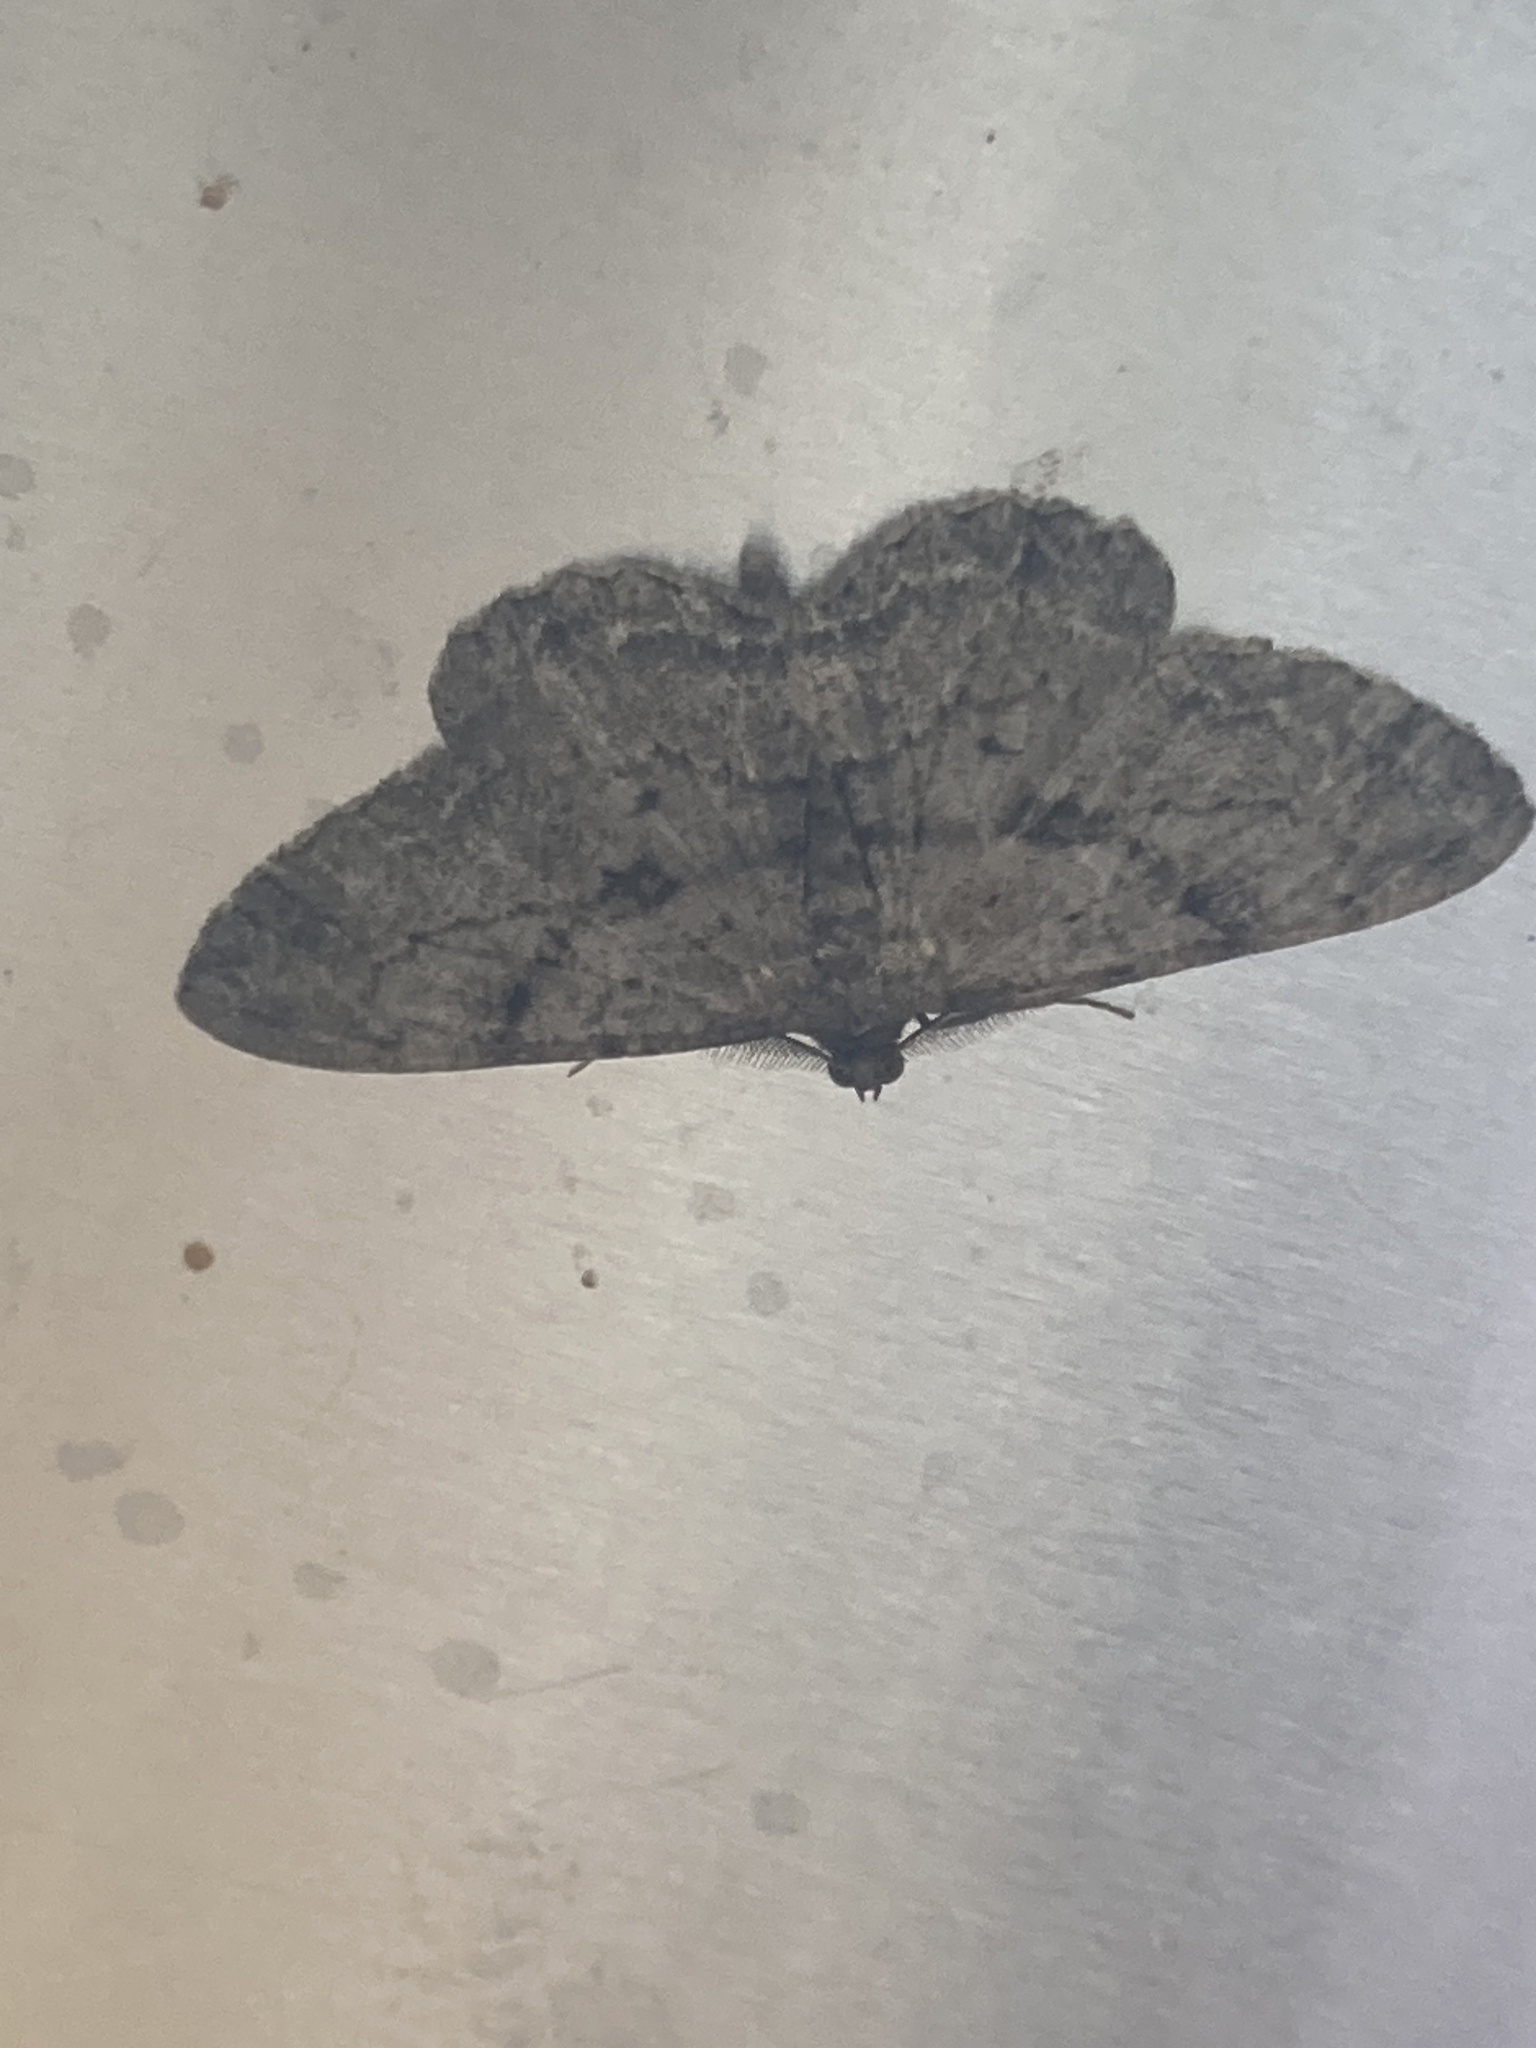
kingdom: Animalia
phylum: Arthropoda
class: Insecta
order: Lepidoptera
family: Geometridae
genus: Peribatodes
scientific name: Peribatodes rhomboidaria
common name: Willow beauty
